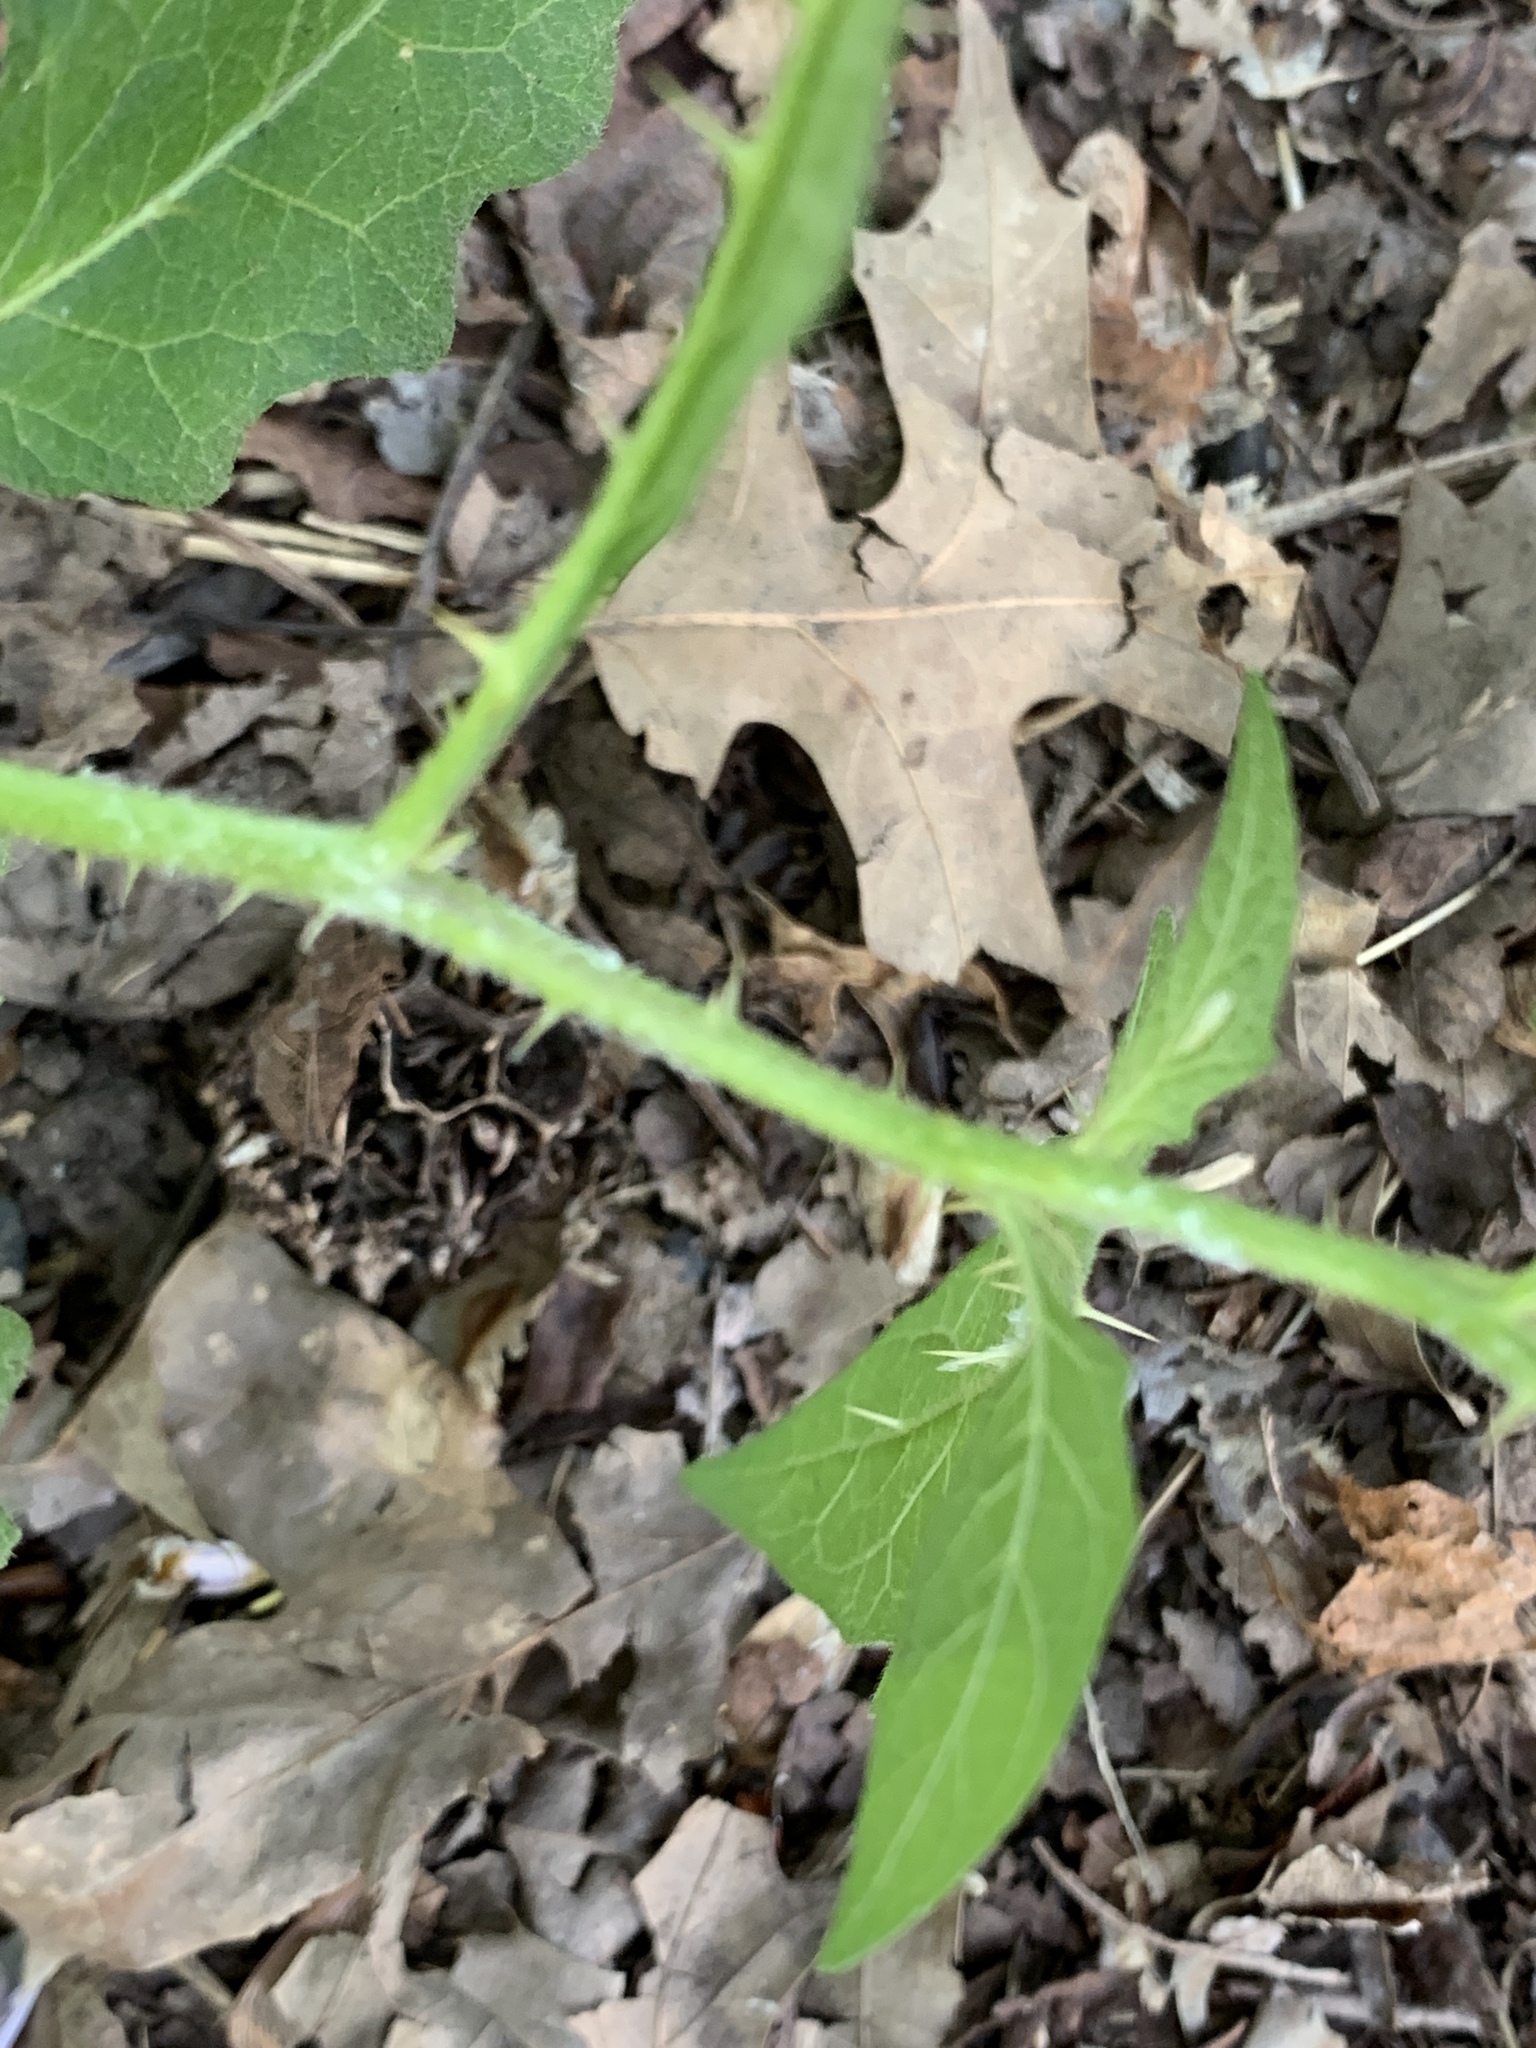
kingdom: Plantae
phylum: Tracheophyta
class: Magnoliopsida
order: Solanales
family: Solanaceae
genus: Solanum
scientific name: Solanum carolinense
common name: Horse-nettle
